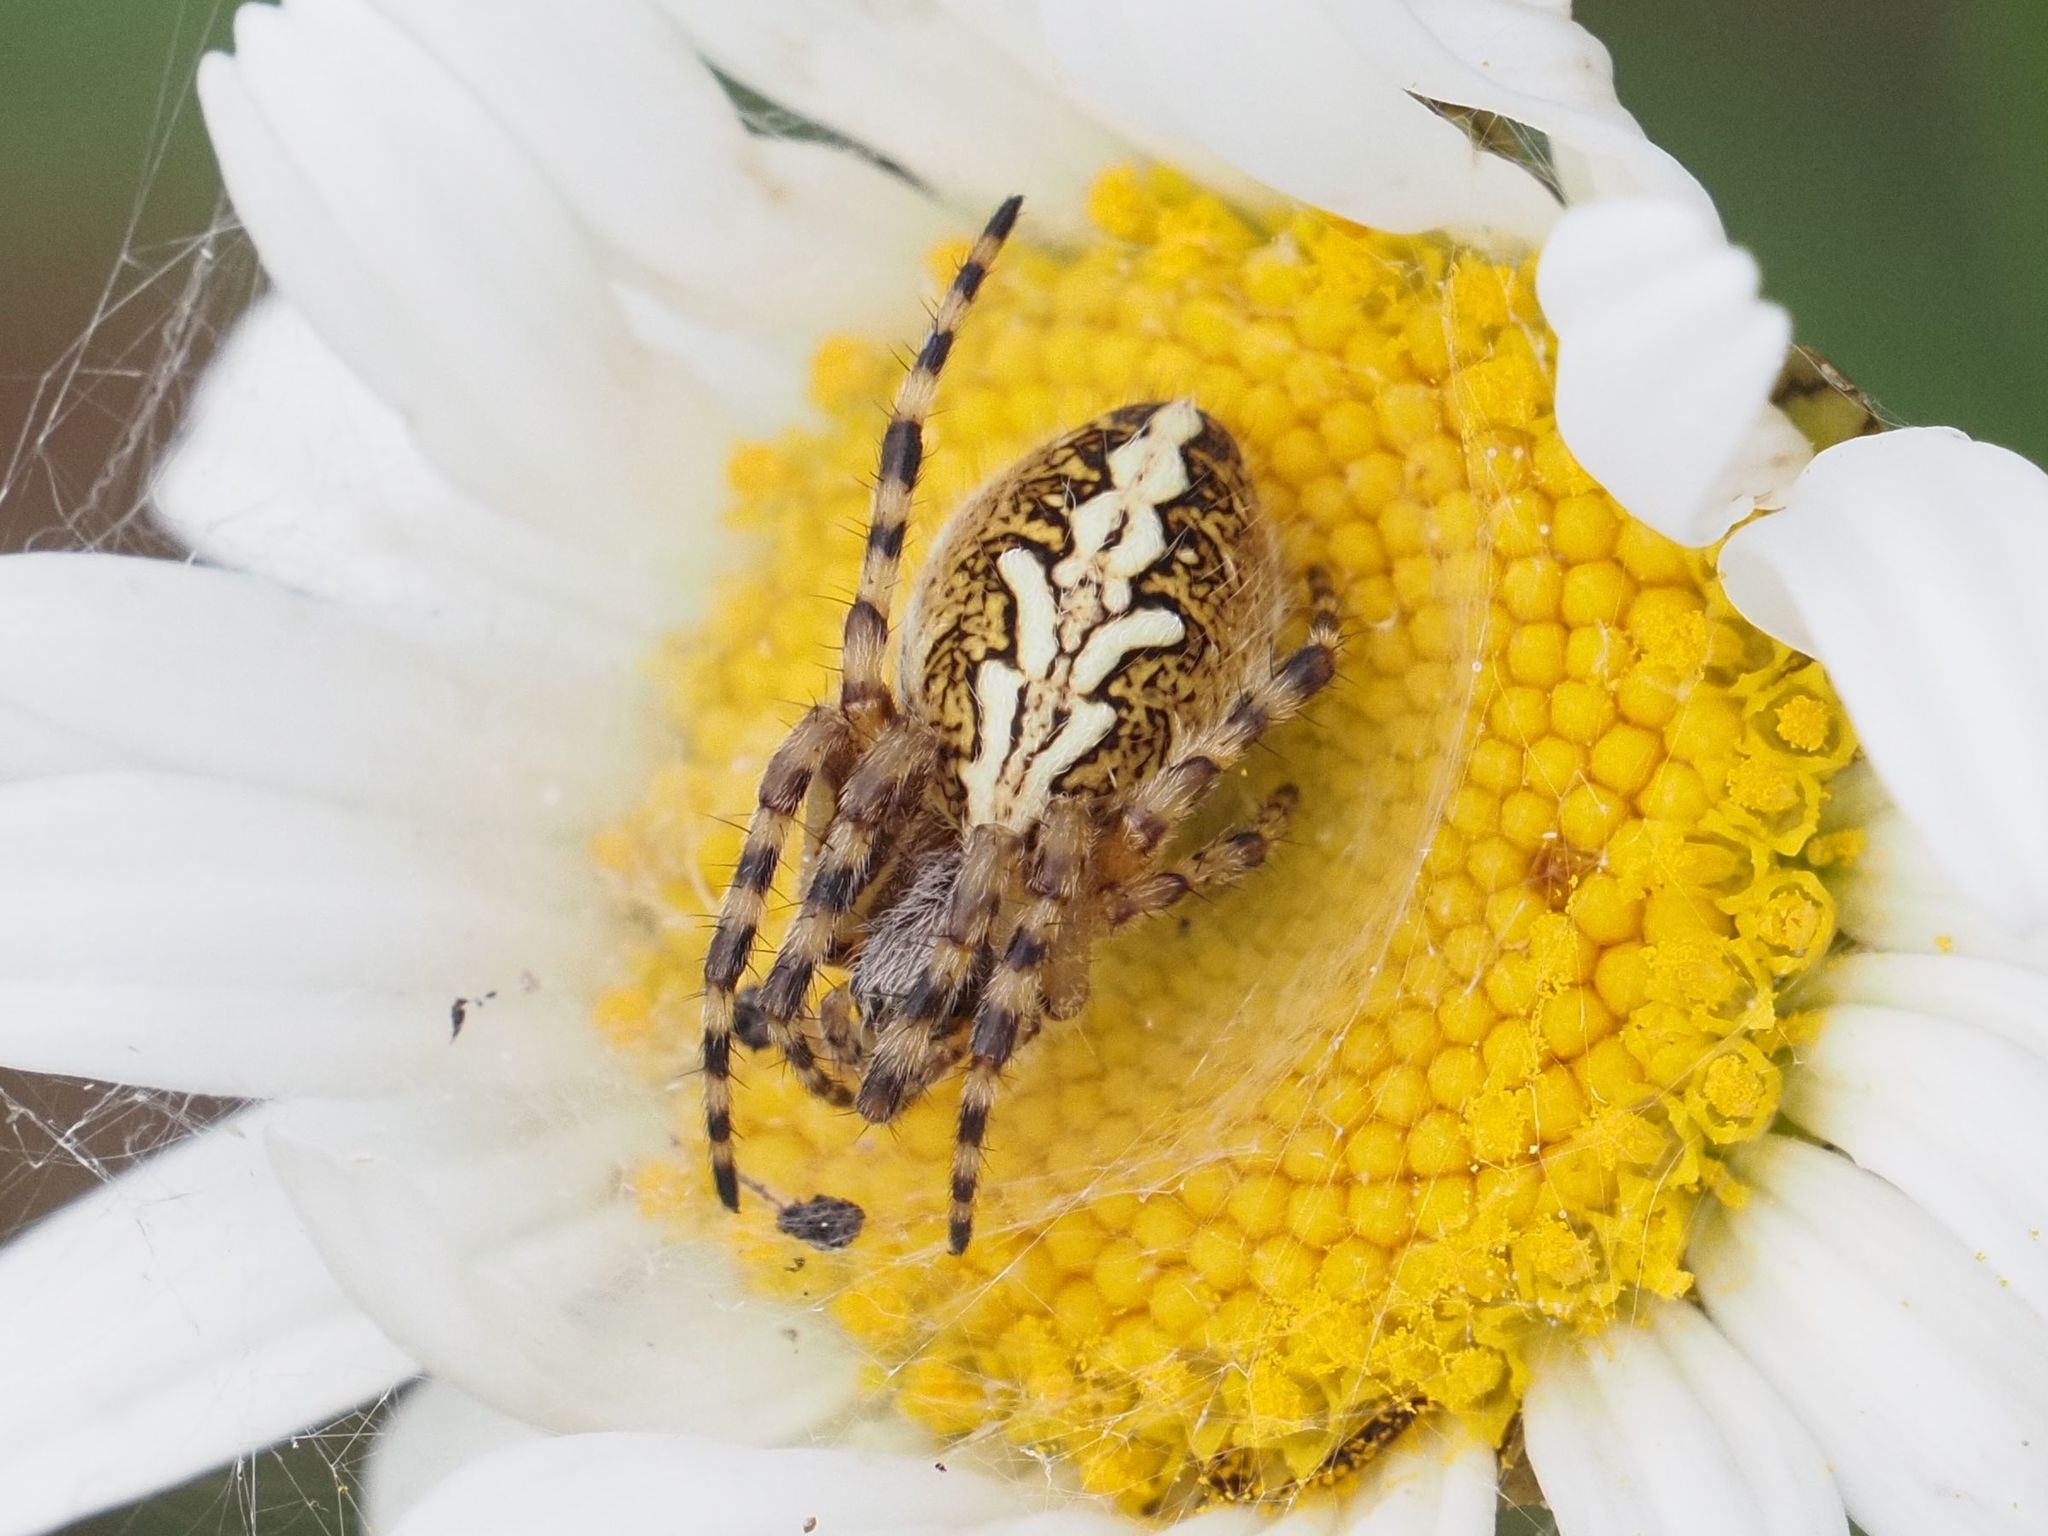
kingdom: Animalia
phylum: Arthropoda
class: Arachnida
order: Araneae
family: Araneidae
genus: Aculepeira
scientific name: Aculepeira ceropegia
